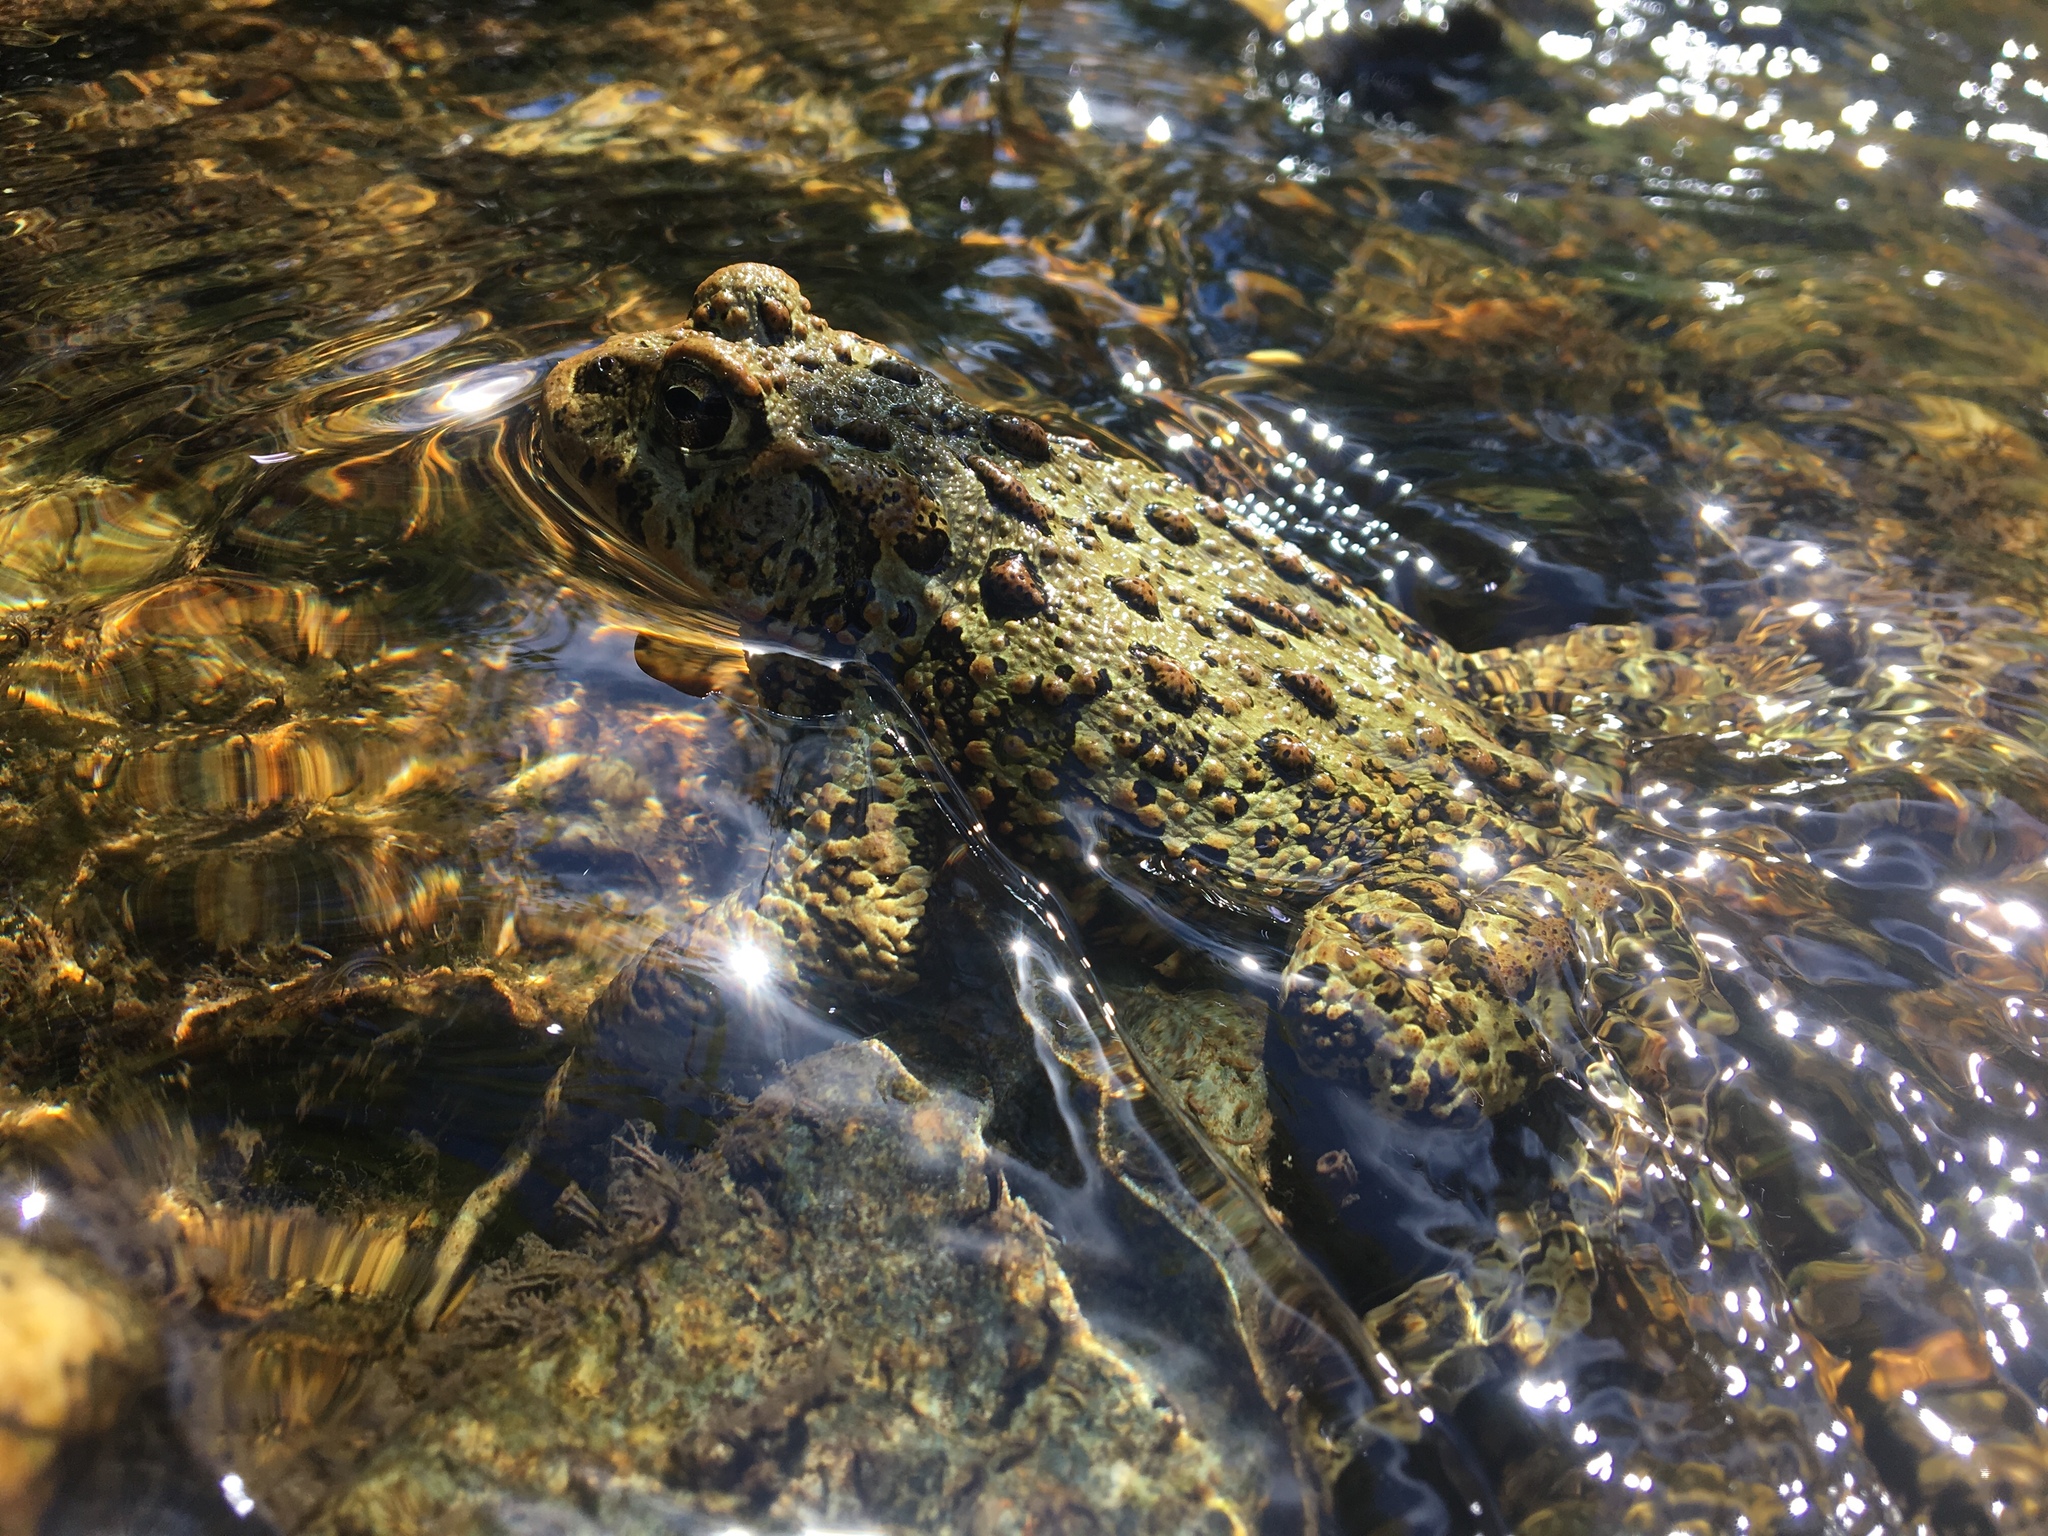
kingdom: Animalia
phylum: Chordata
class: Amphibia
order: Anura
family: Bufonidae
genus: Anaxyrus
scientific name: Anaxyrus boreas
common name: Western toad
